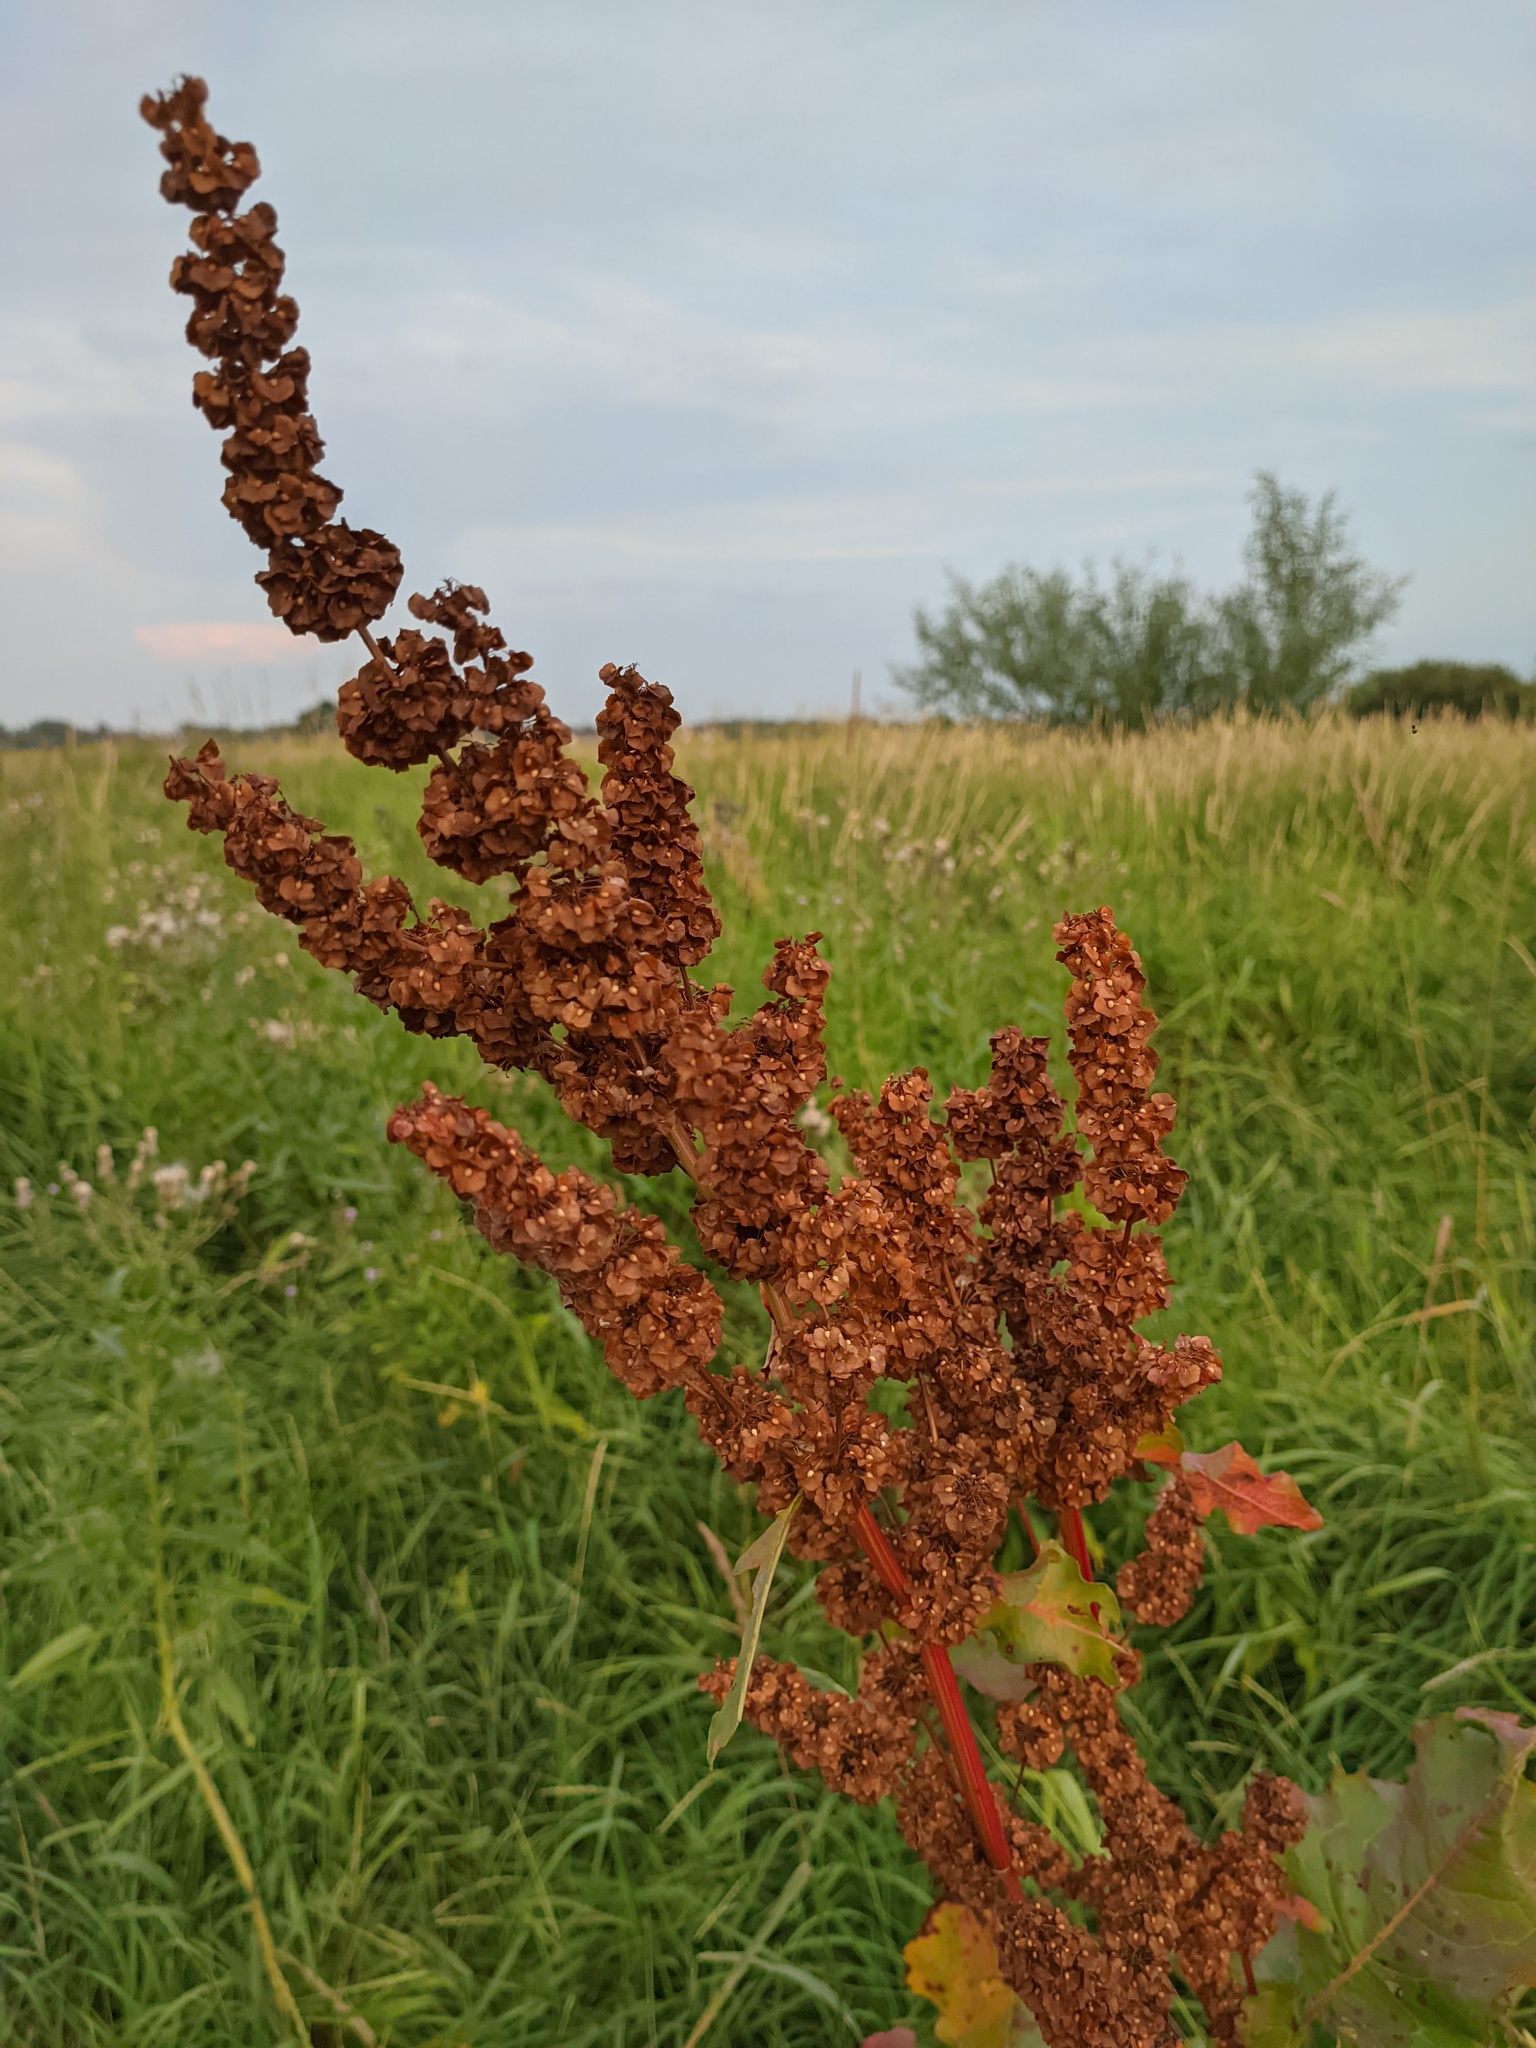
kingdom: Plantae
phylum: Tracheophyta
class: Magnoliopsida
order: Caryophyllales
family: Polygonaceae
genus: Rumex
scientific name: Rumex confertus
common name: Russian dock
